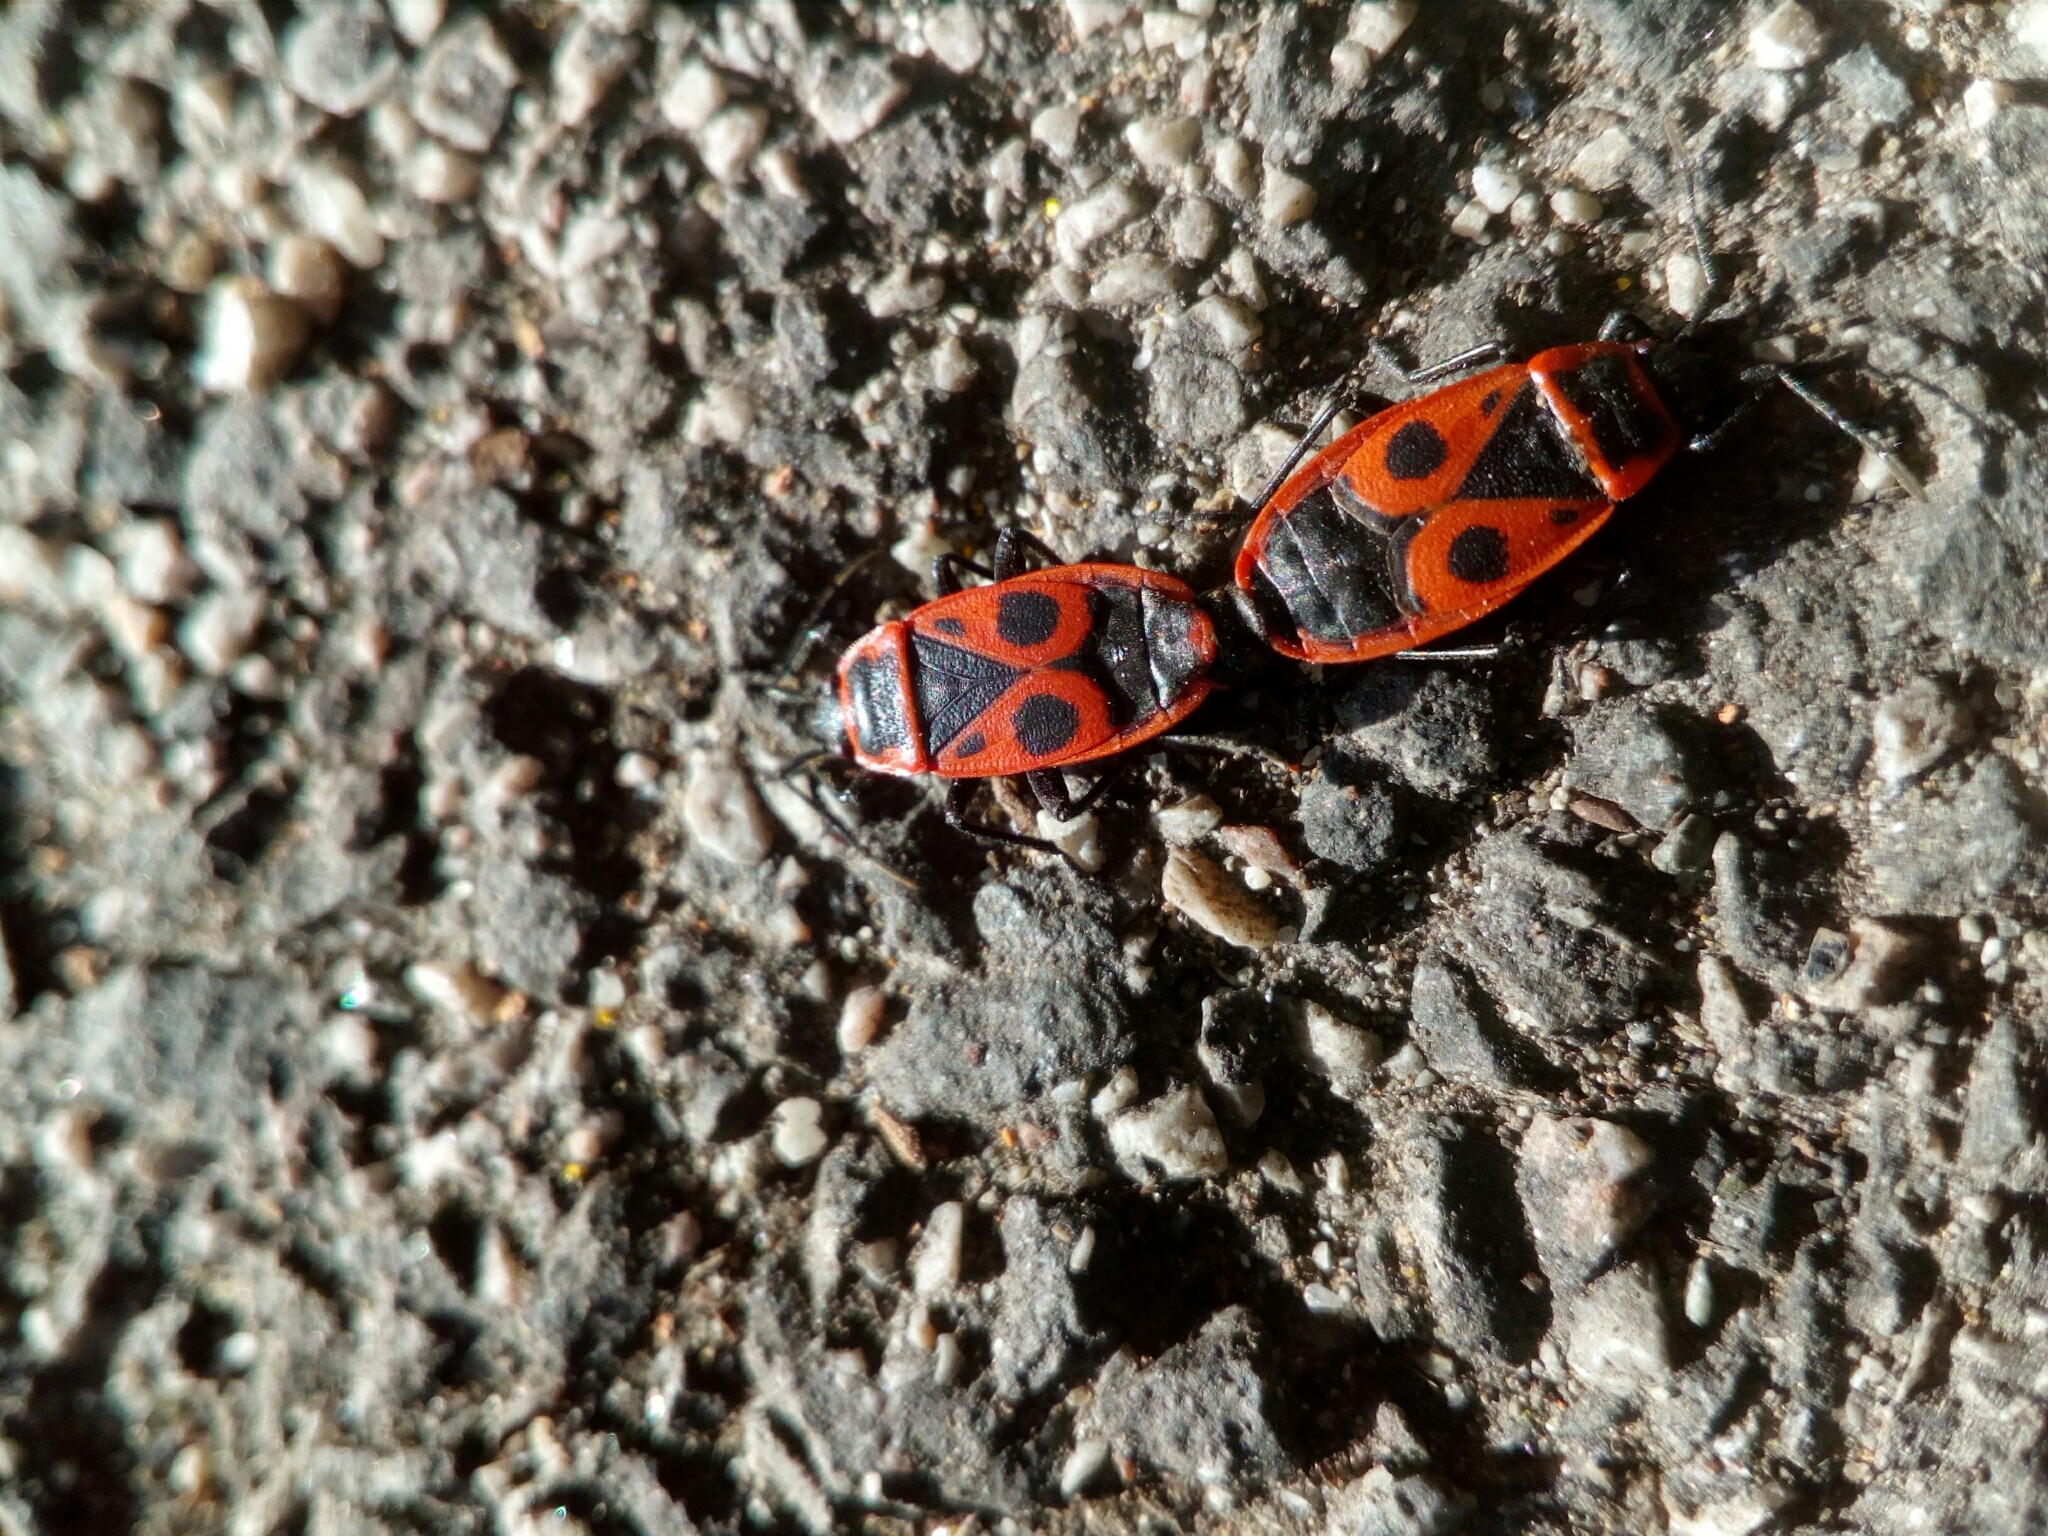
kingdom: Animalia
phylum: Arthropoda
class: Insecta
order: Hemiptera
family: Pyrrhocoridae
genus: Pyrrhocoris
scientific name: Pyrrhocoris apterus
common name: Firebug
